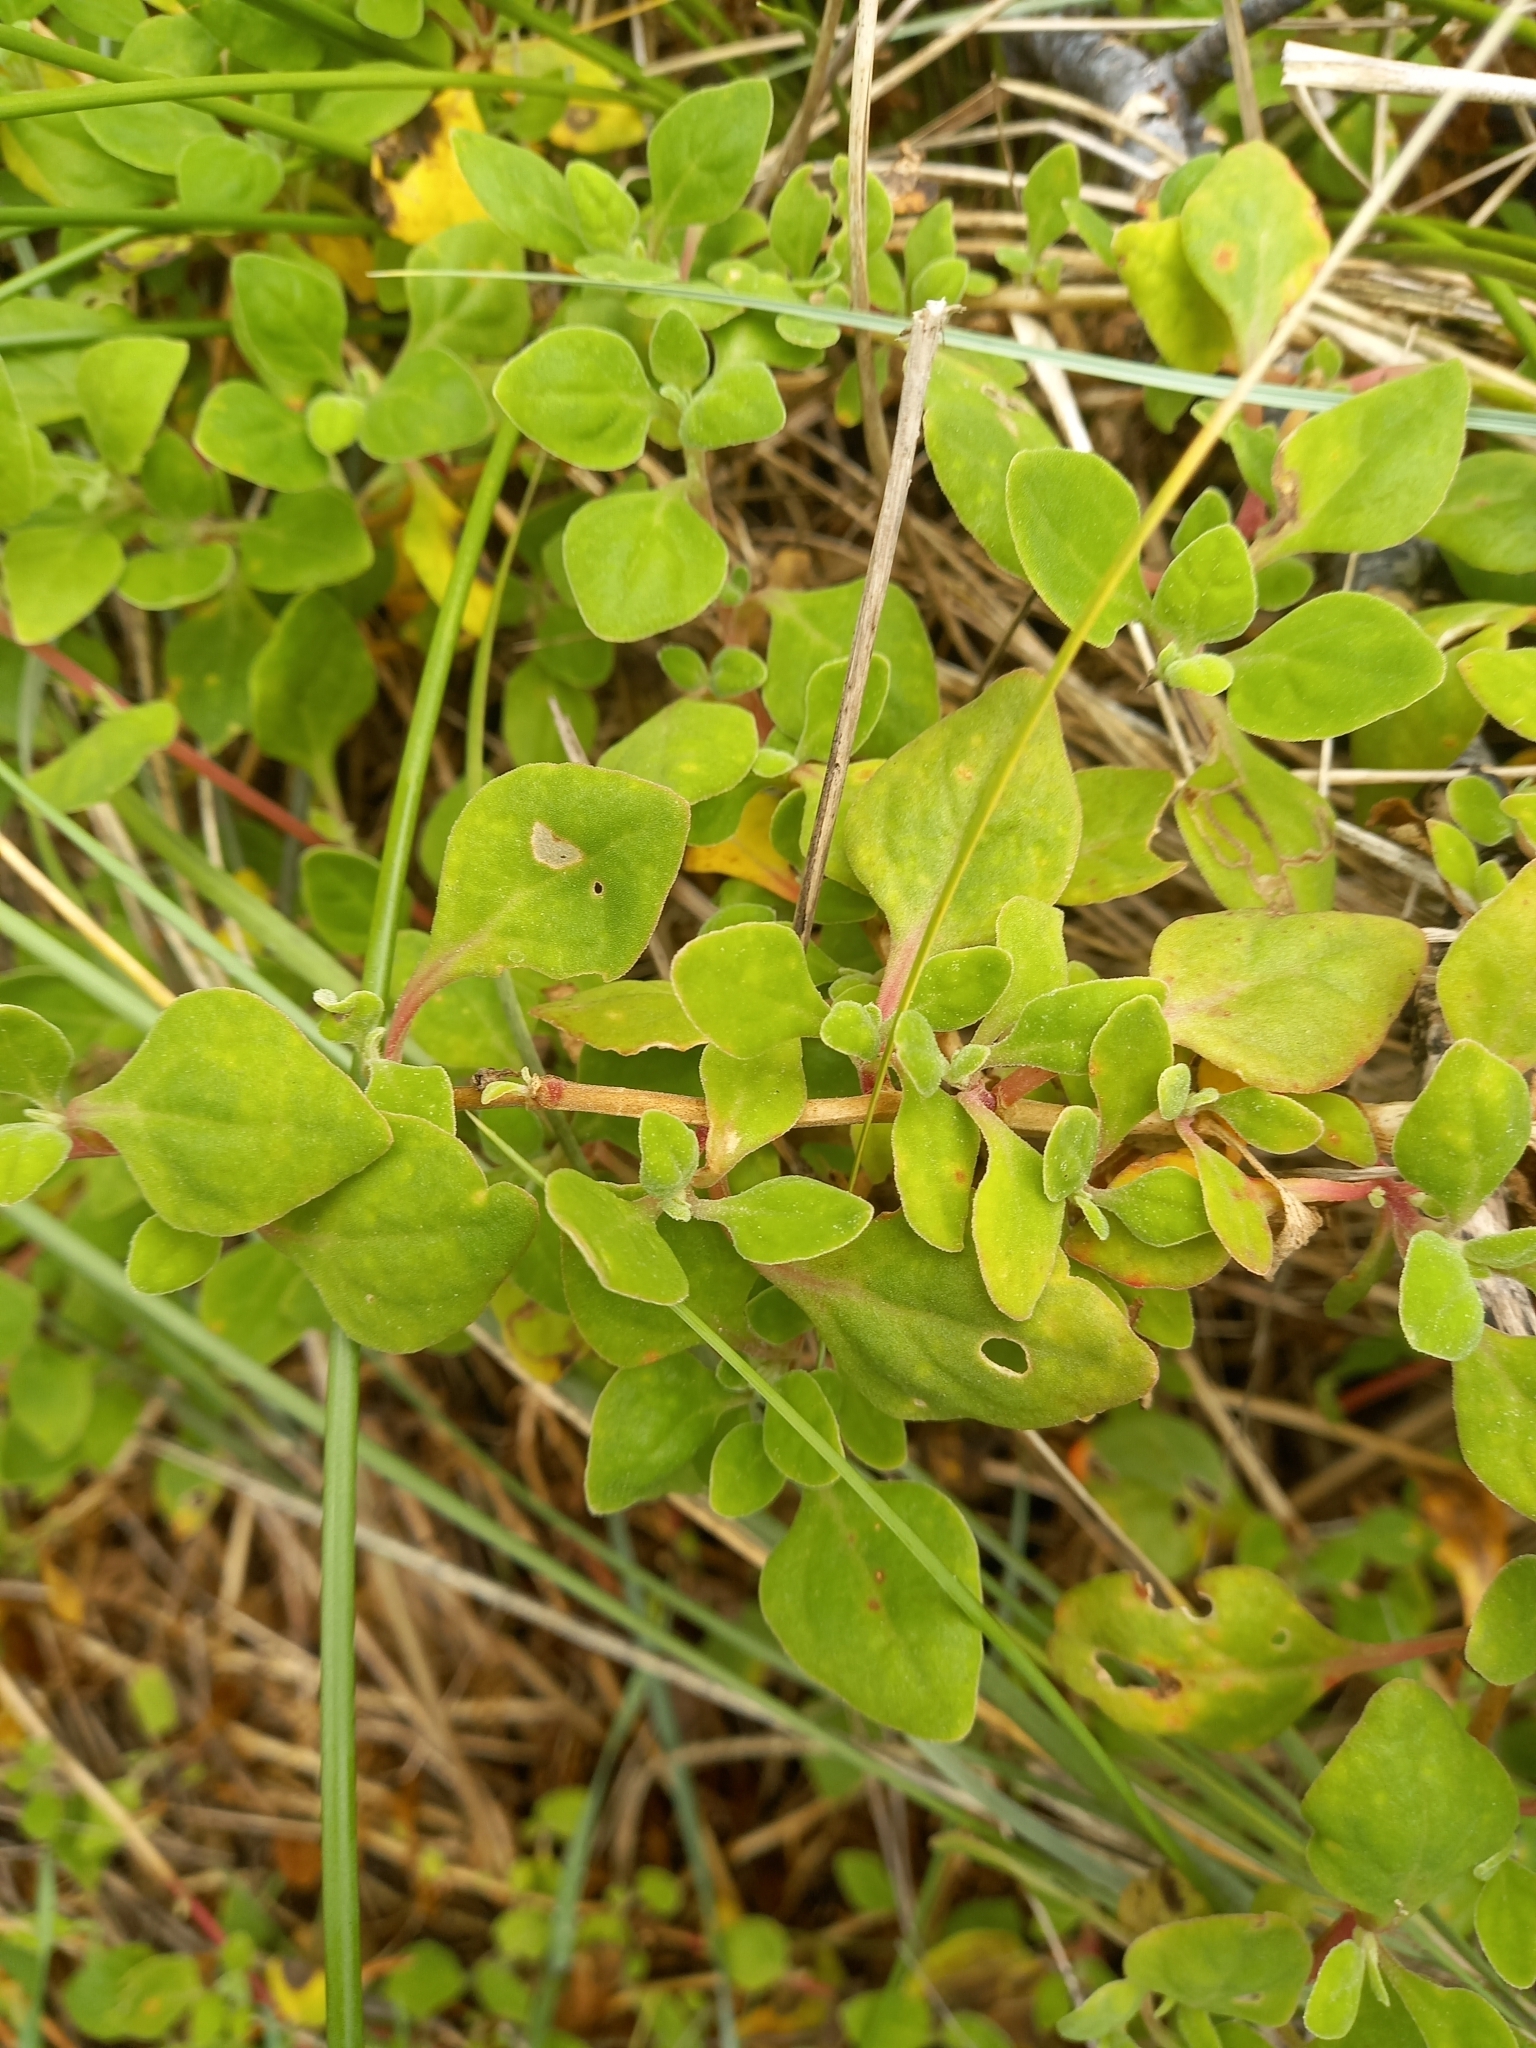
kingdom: Plantae
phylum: Tracheophyta
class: Magnoliopsida
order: Caryophyllales
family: Aizoaceae
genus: Tetragonia
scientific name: Tetragonia implexicoma
